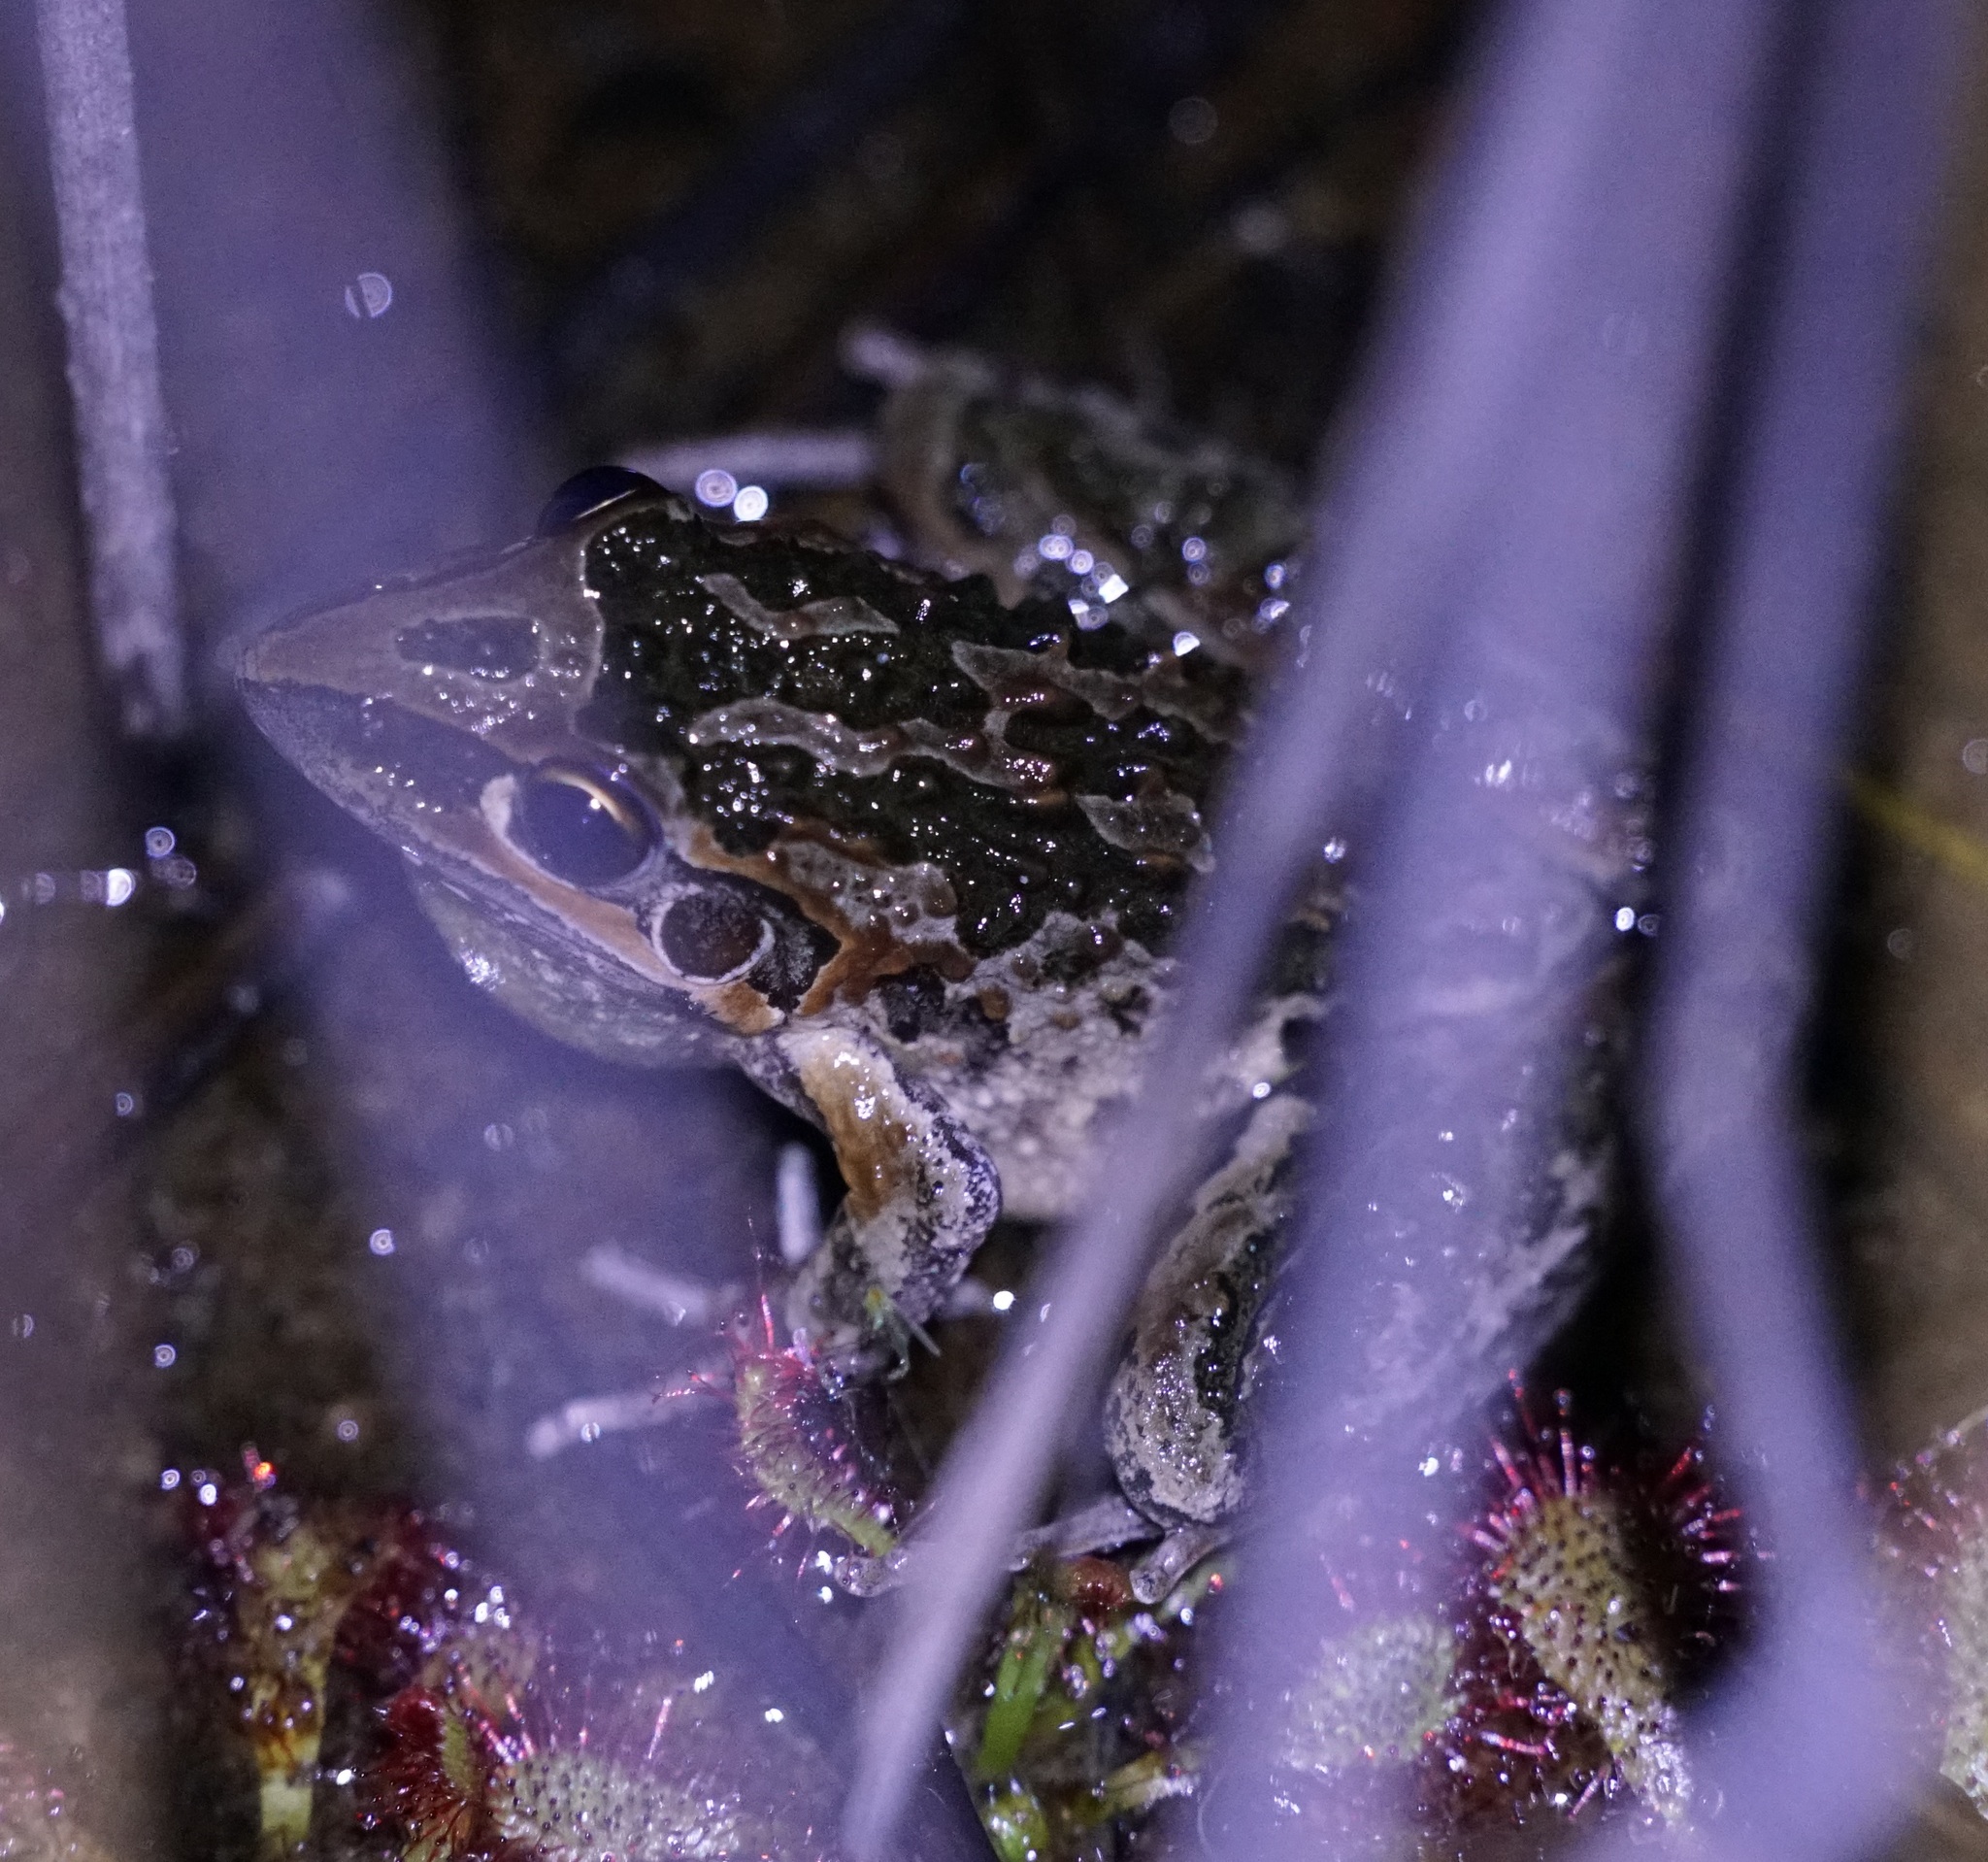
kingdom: Animalia
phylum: Chordata
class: Amphibia
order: Anura
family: Pelodryadidae
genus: Litoria
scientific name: Litoria freycineti
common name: Freycinet’s frog
